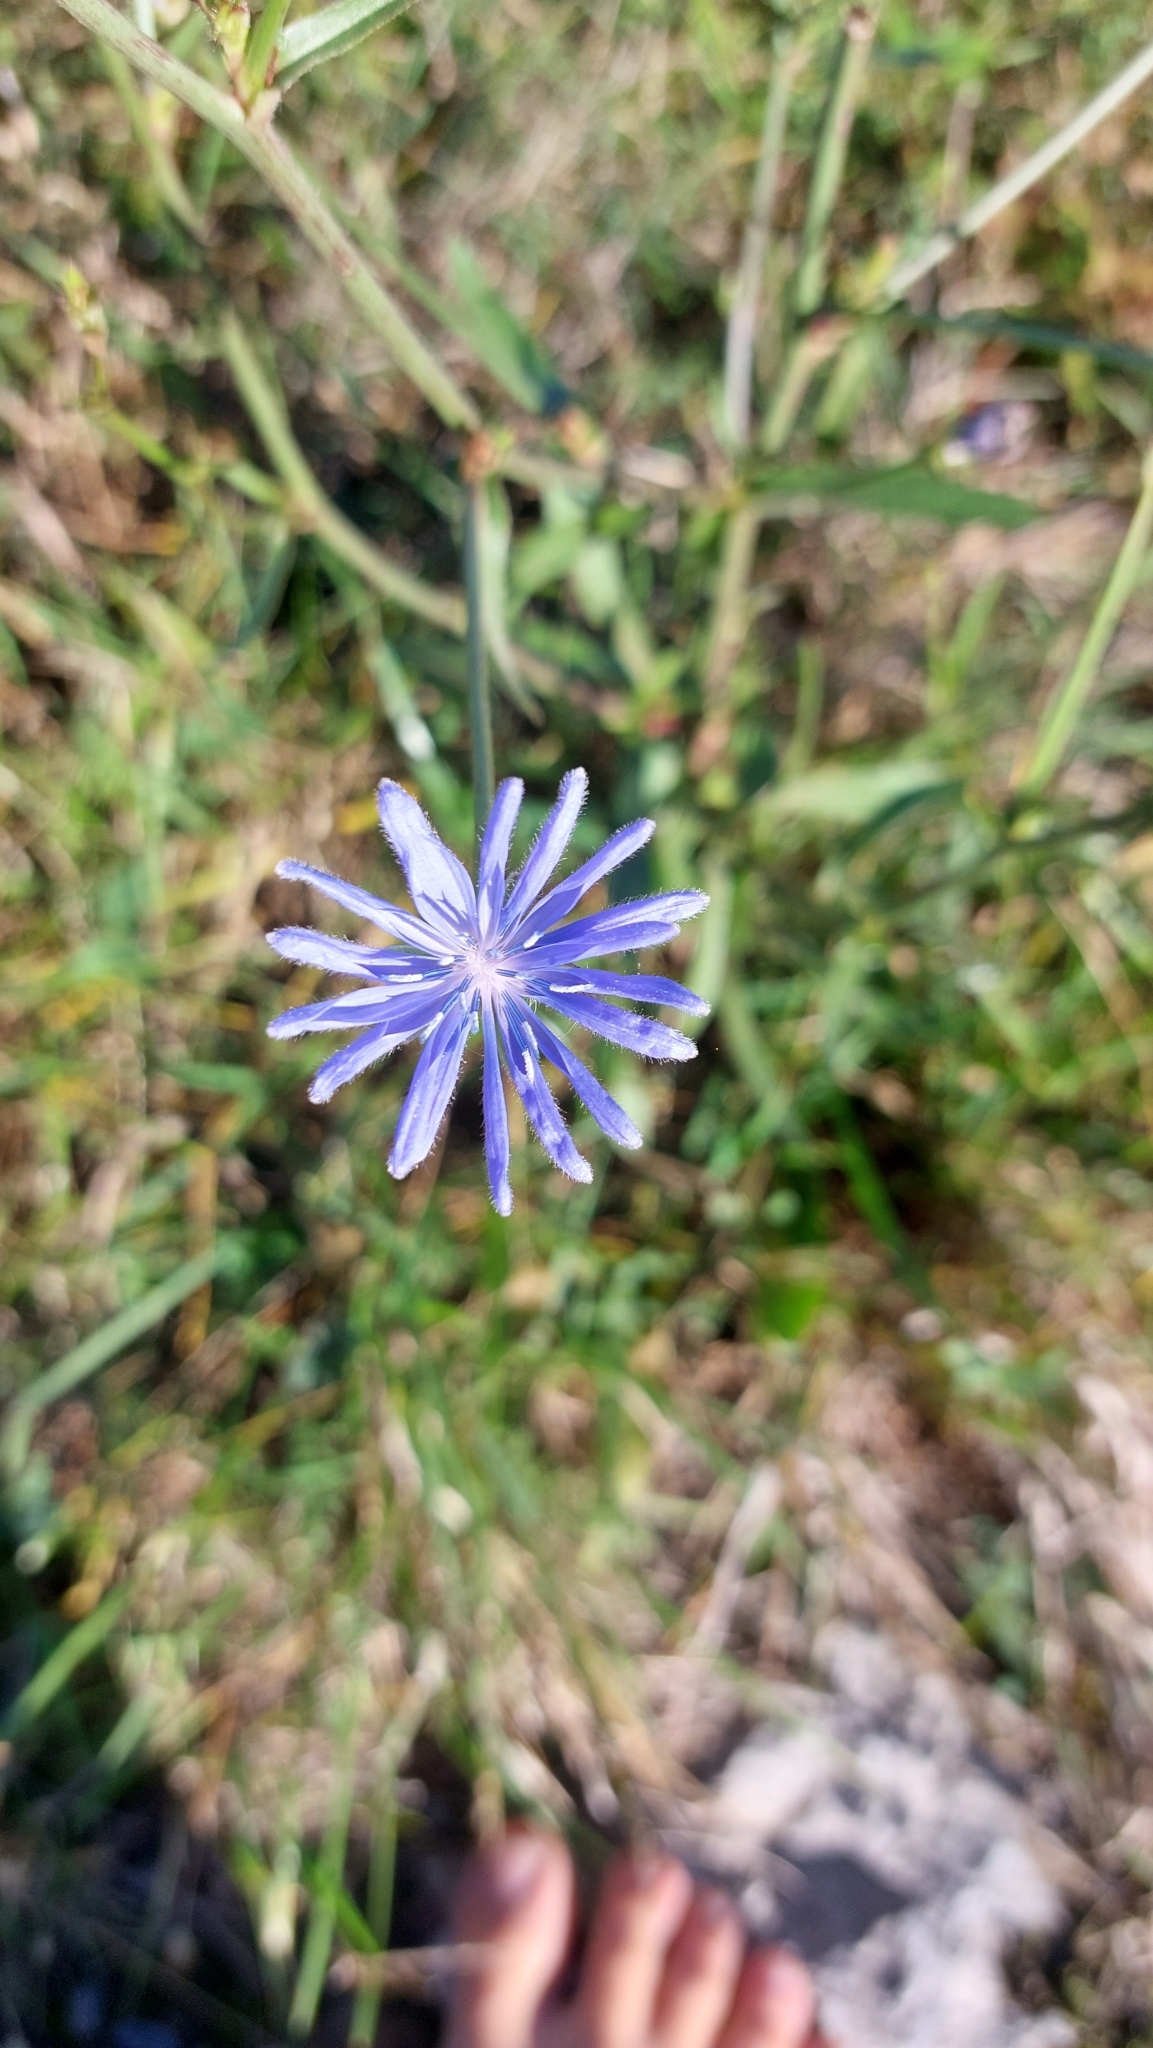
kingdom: Plantae
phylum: Tracheophyta
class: Magnoliopsida
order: Asterales
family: Asteraceae
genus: Cichorium
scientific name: Cichorium intybus
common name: Chicory
